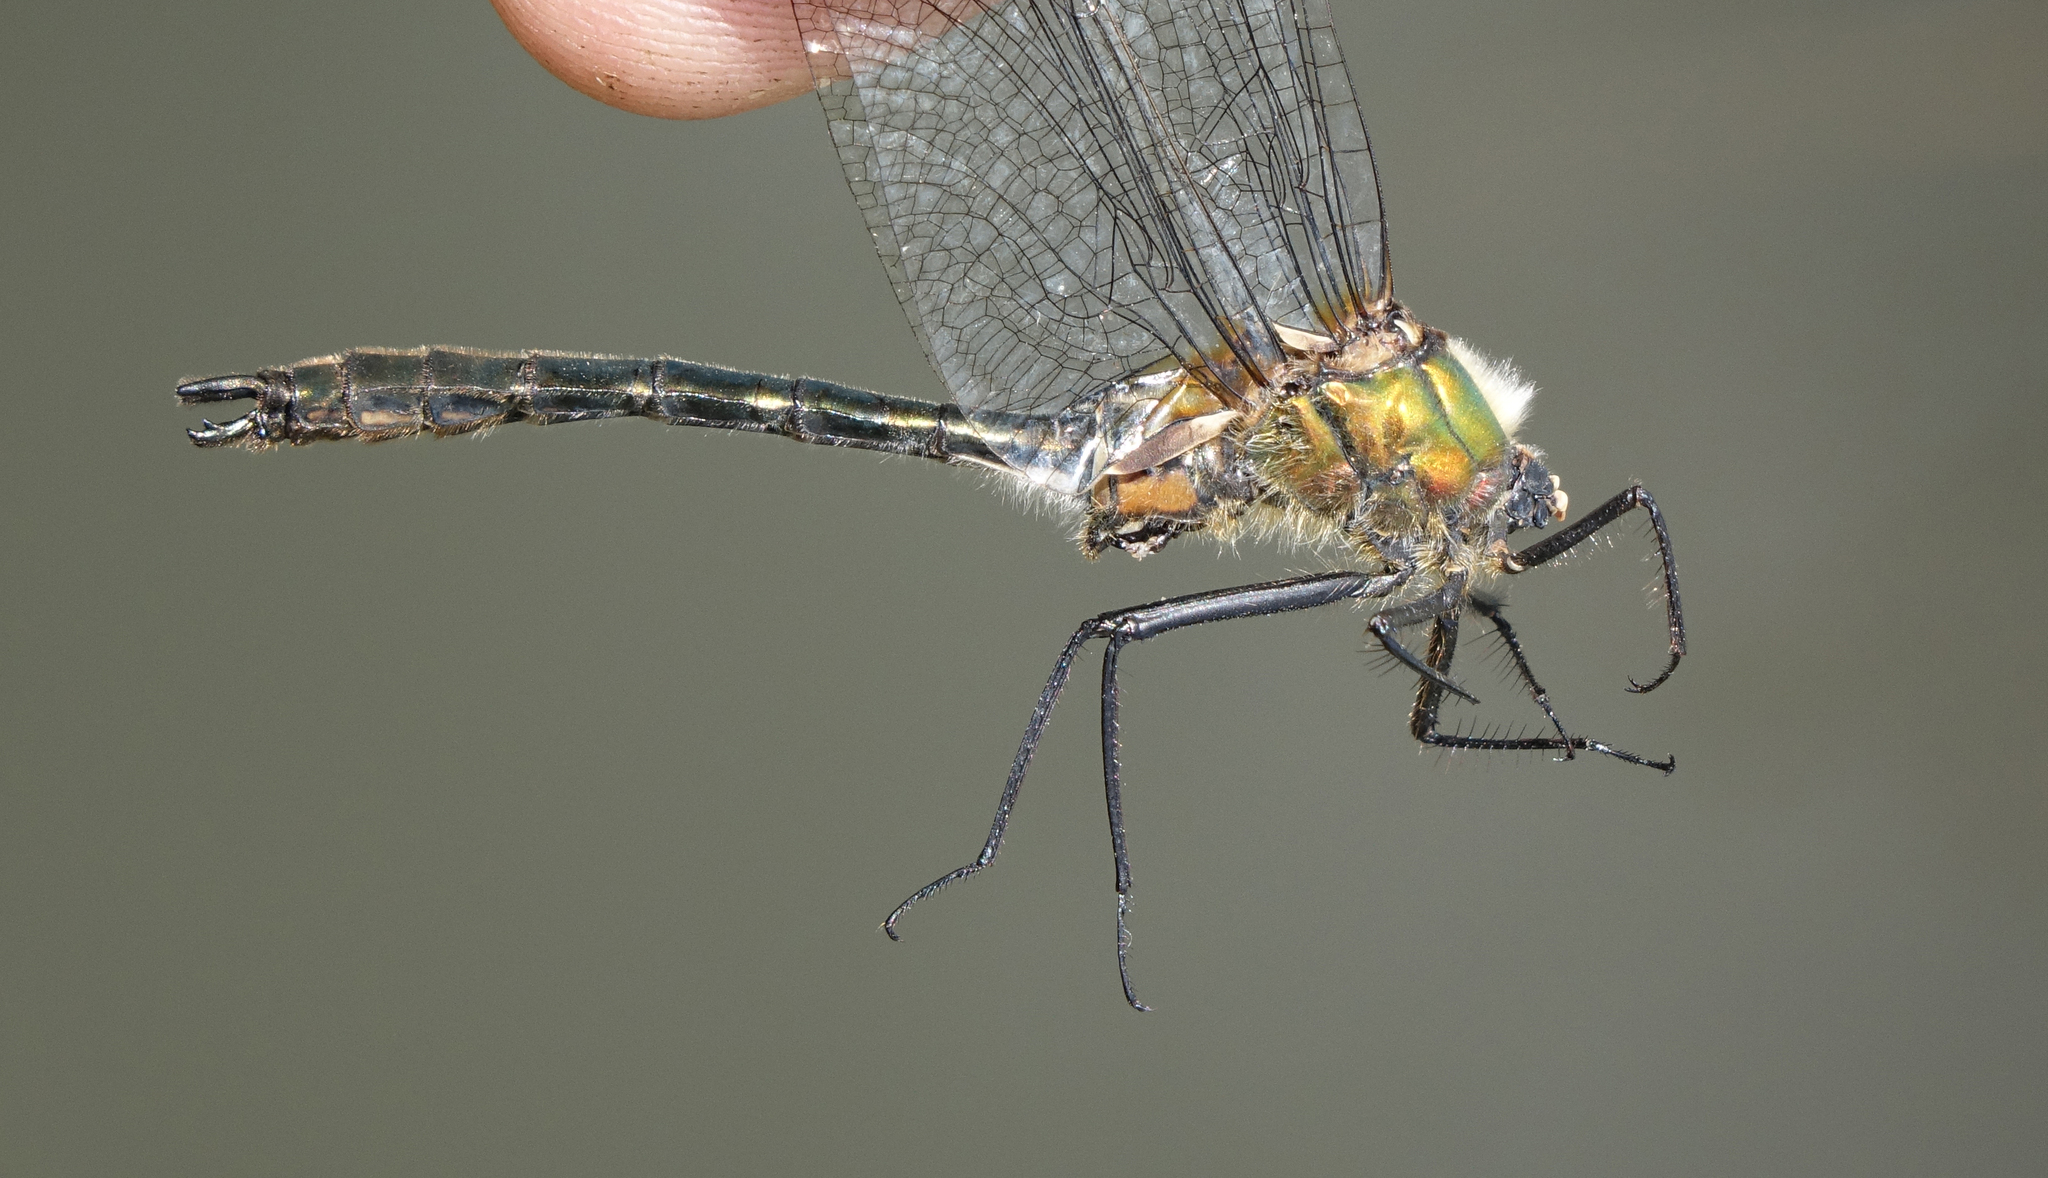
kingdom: Animalia
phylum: Arthropoda
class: Insecta
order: Odonata
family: Corduliidae
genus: Cordulia
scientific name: Cordulia aenea
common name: Downy emerald
